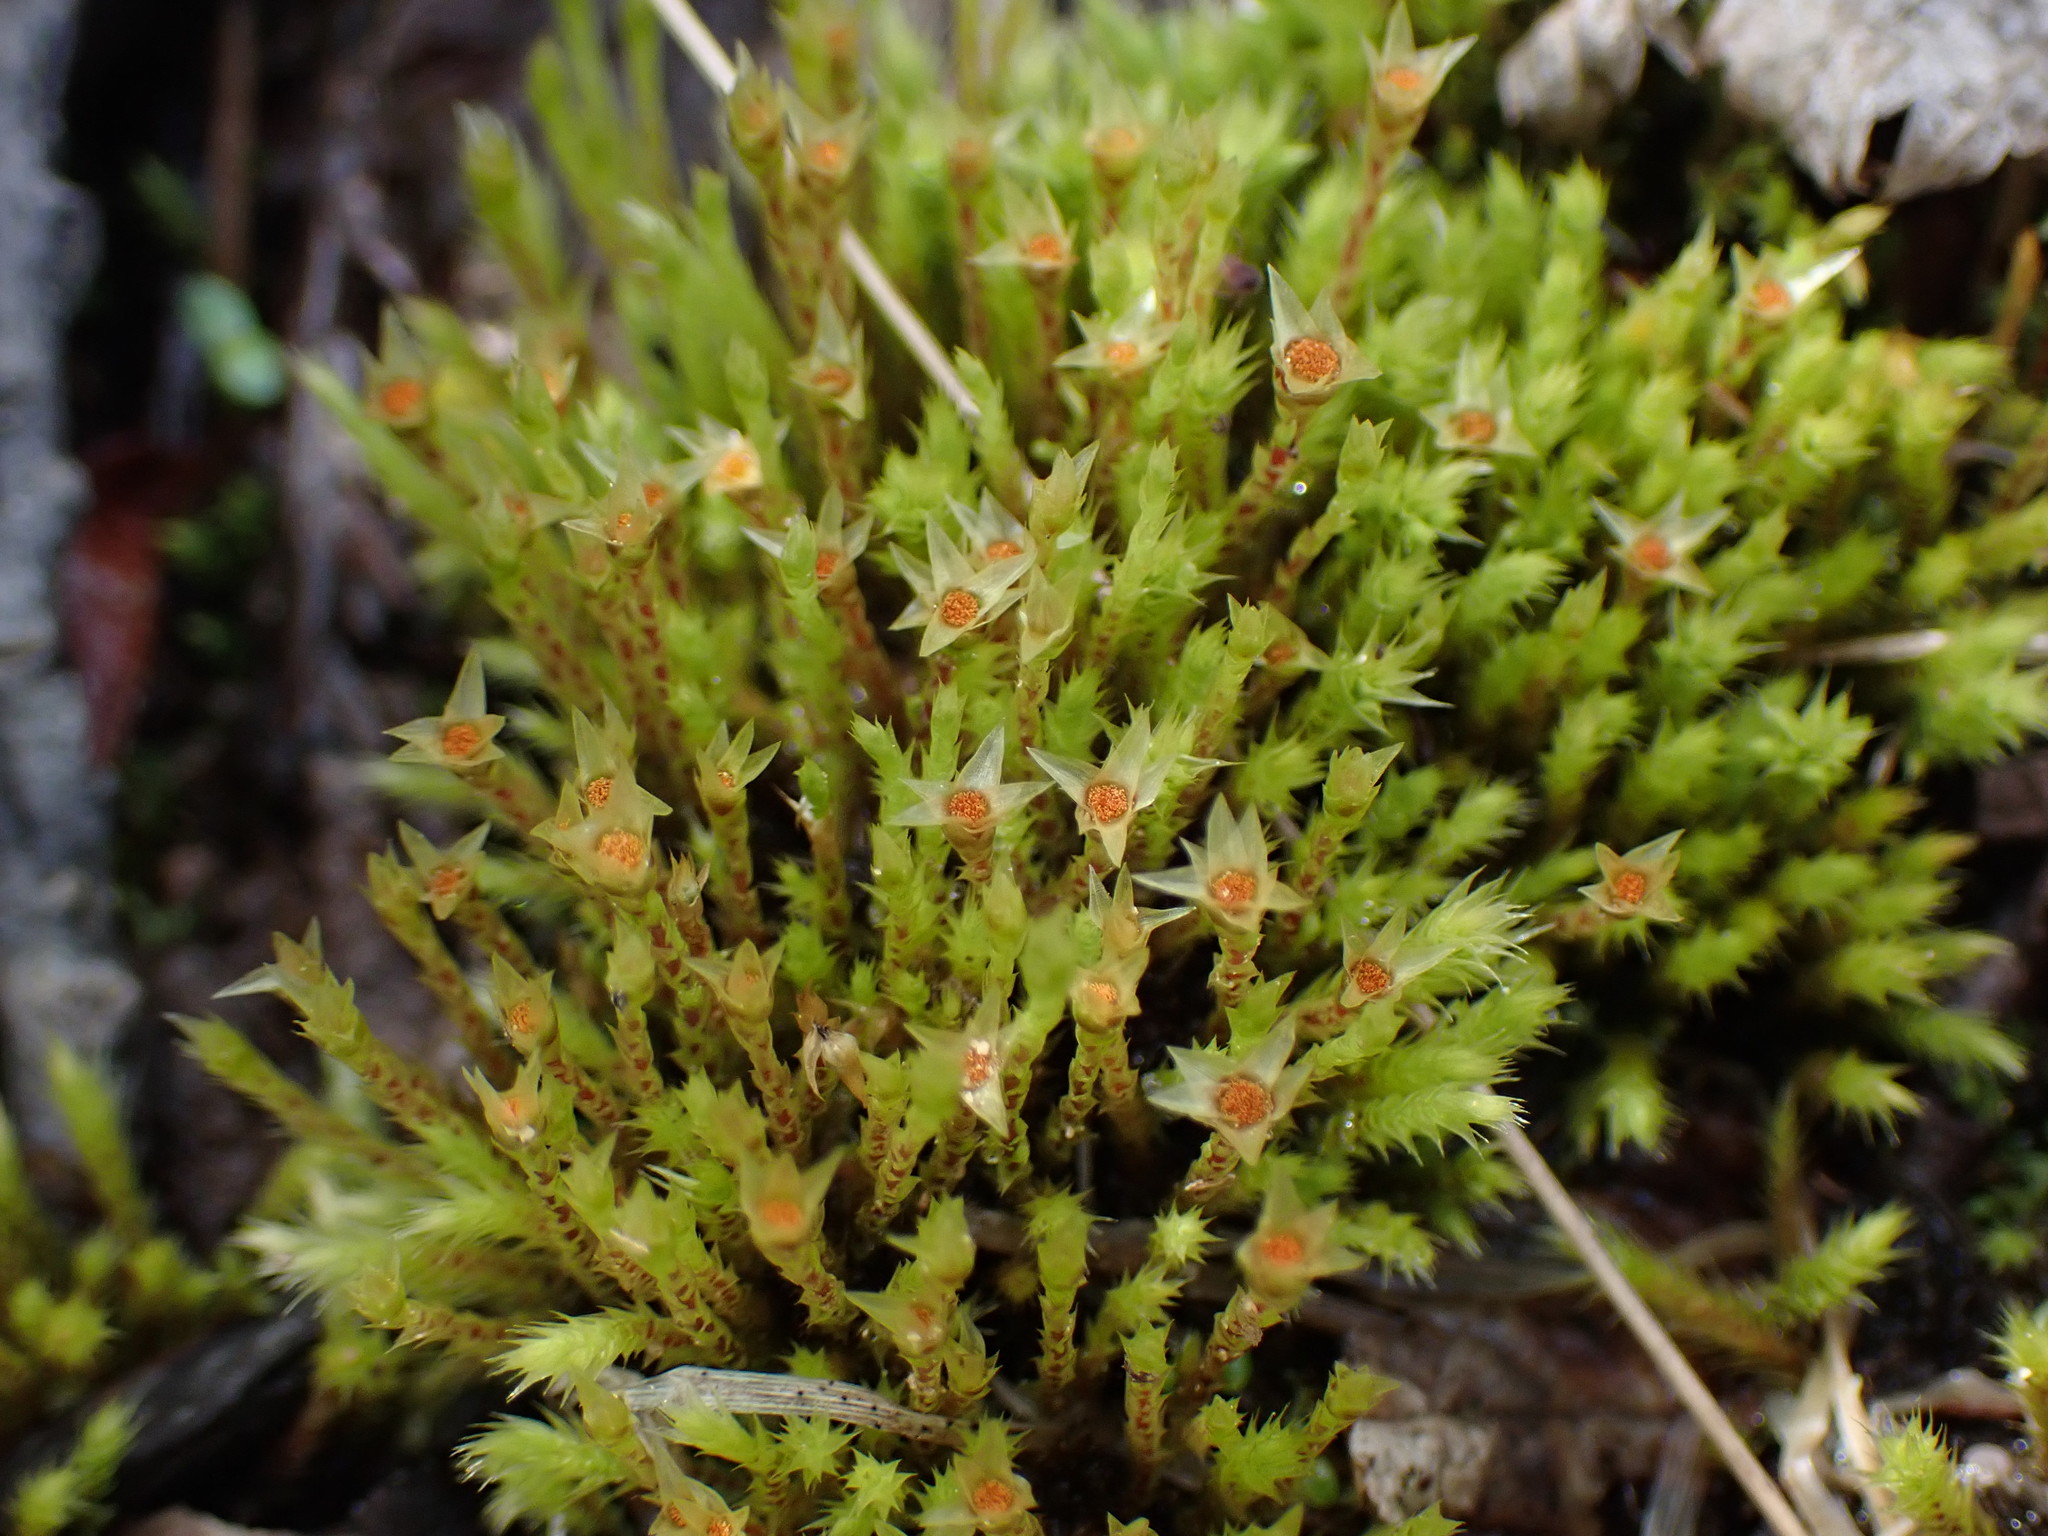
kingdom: Plantae
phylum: Bryophyta
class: Bryopsida
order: Bartramiales
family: Bartramiaceae
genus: Philonotis
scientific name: Philonotis fontana
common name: Fountain apple-moss
